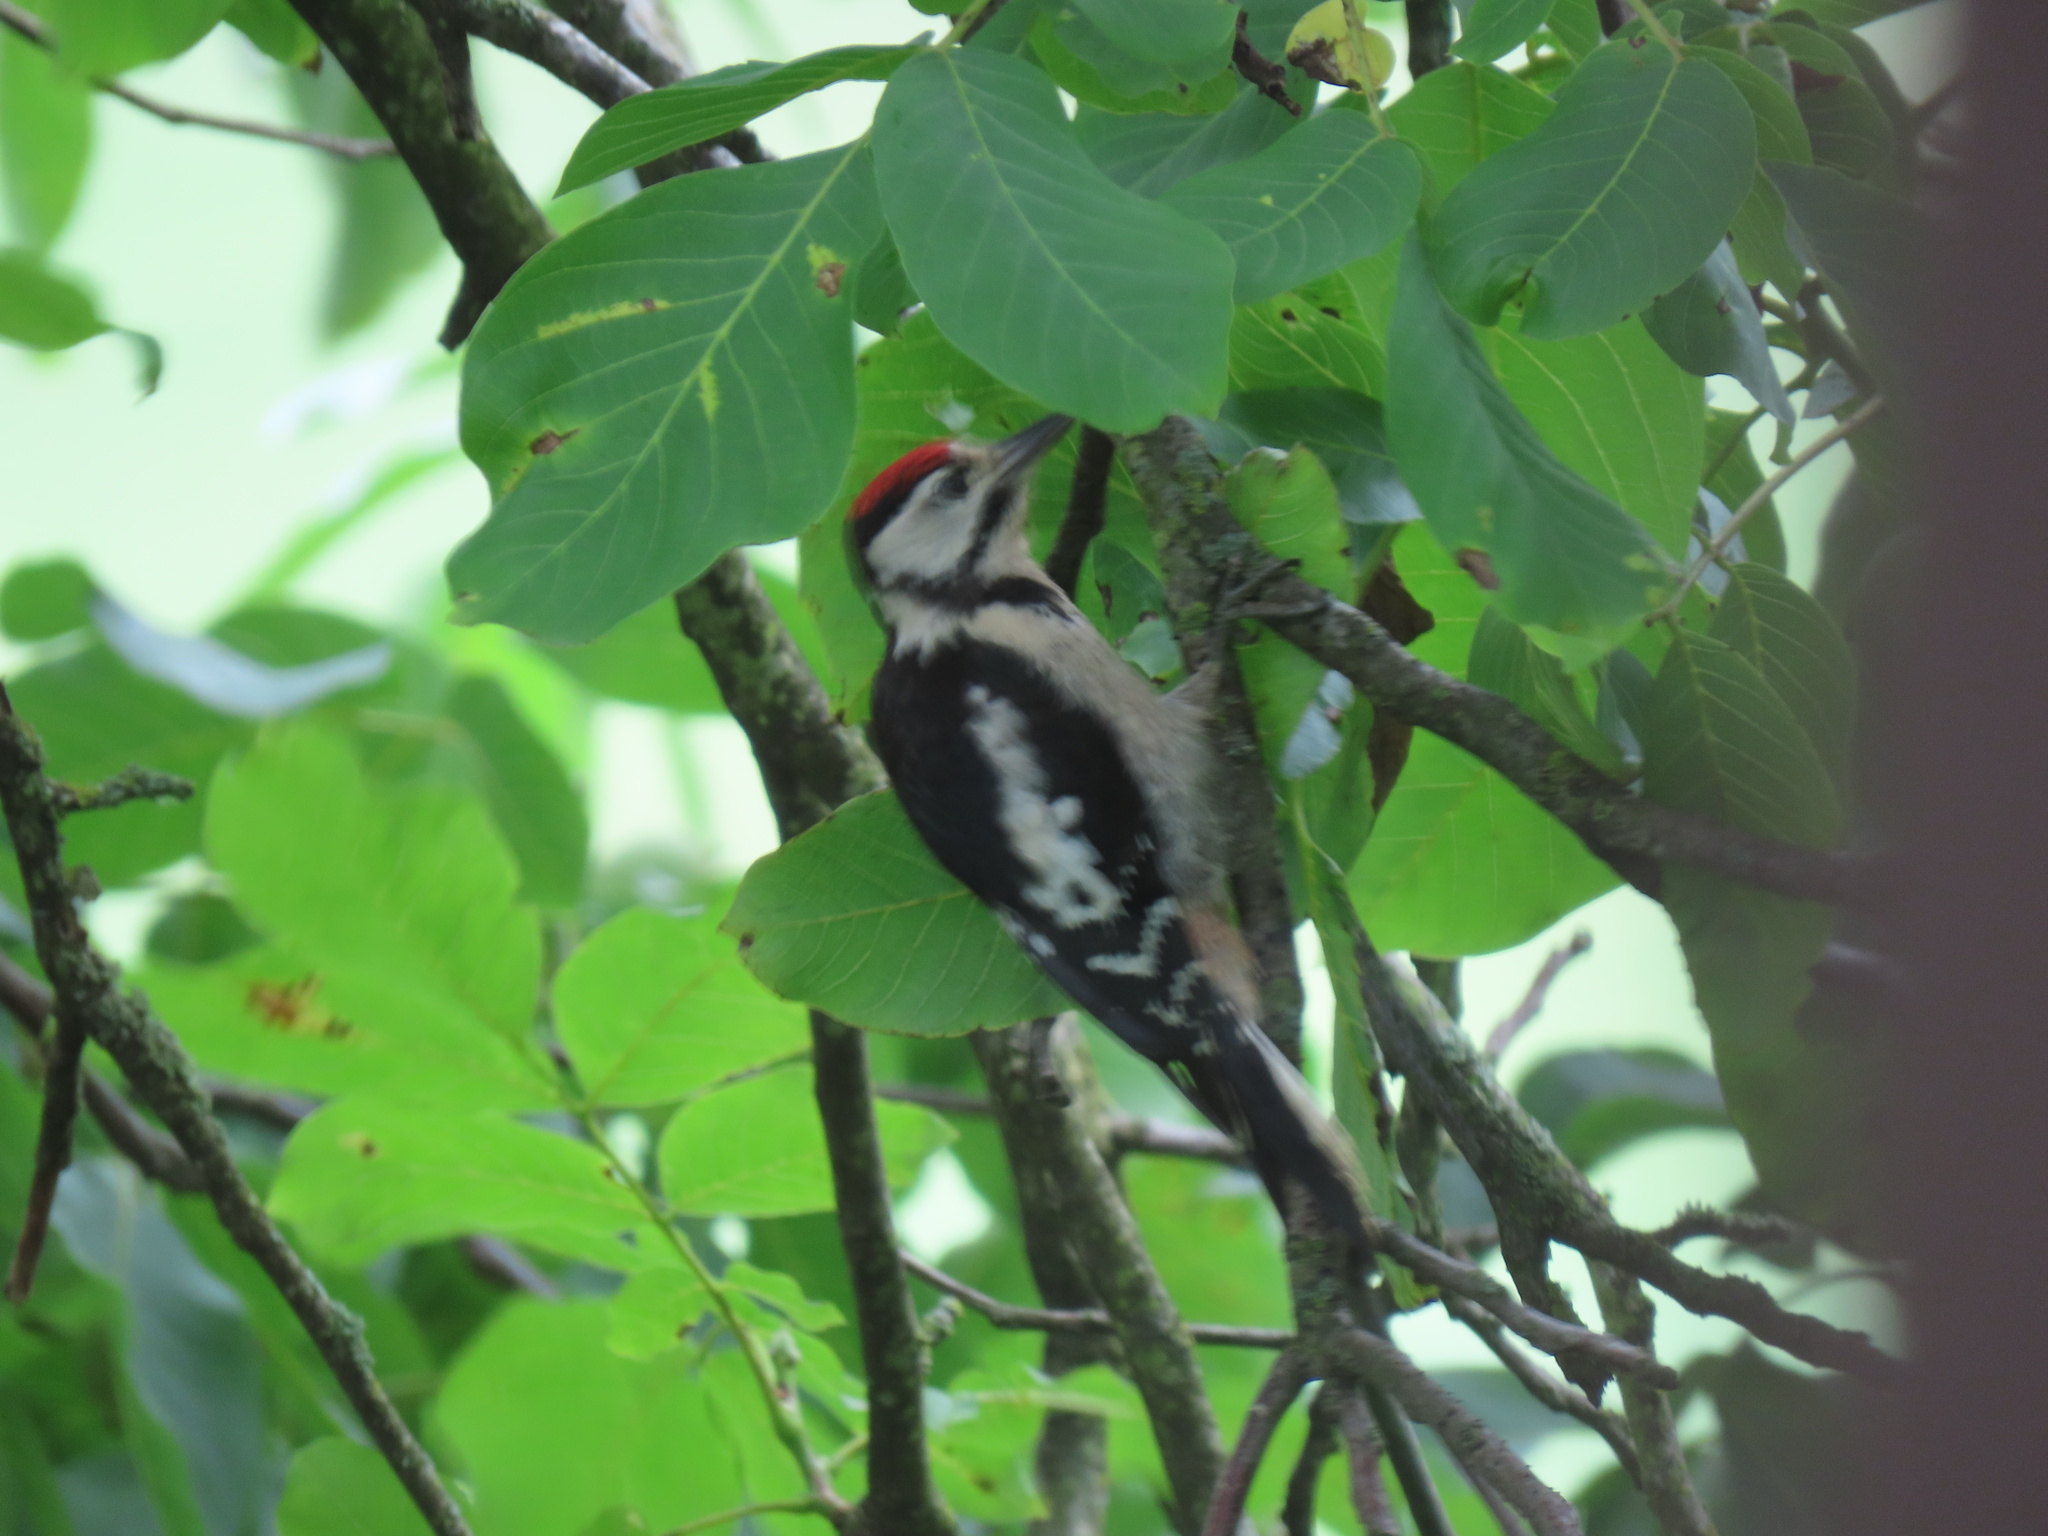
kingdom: Animalia
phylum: Chordata
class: Aves
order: Piciformes
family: Picidae
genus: Dendrocopos
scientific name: Dendrocopos major
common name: Great spotted woodpecker
